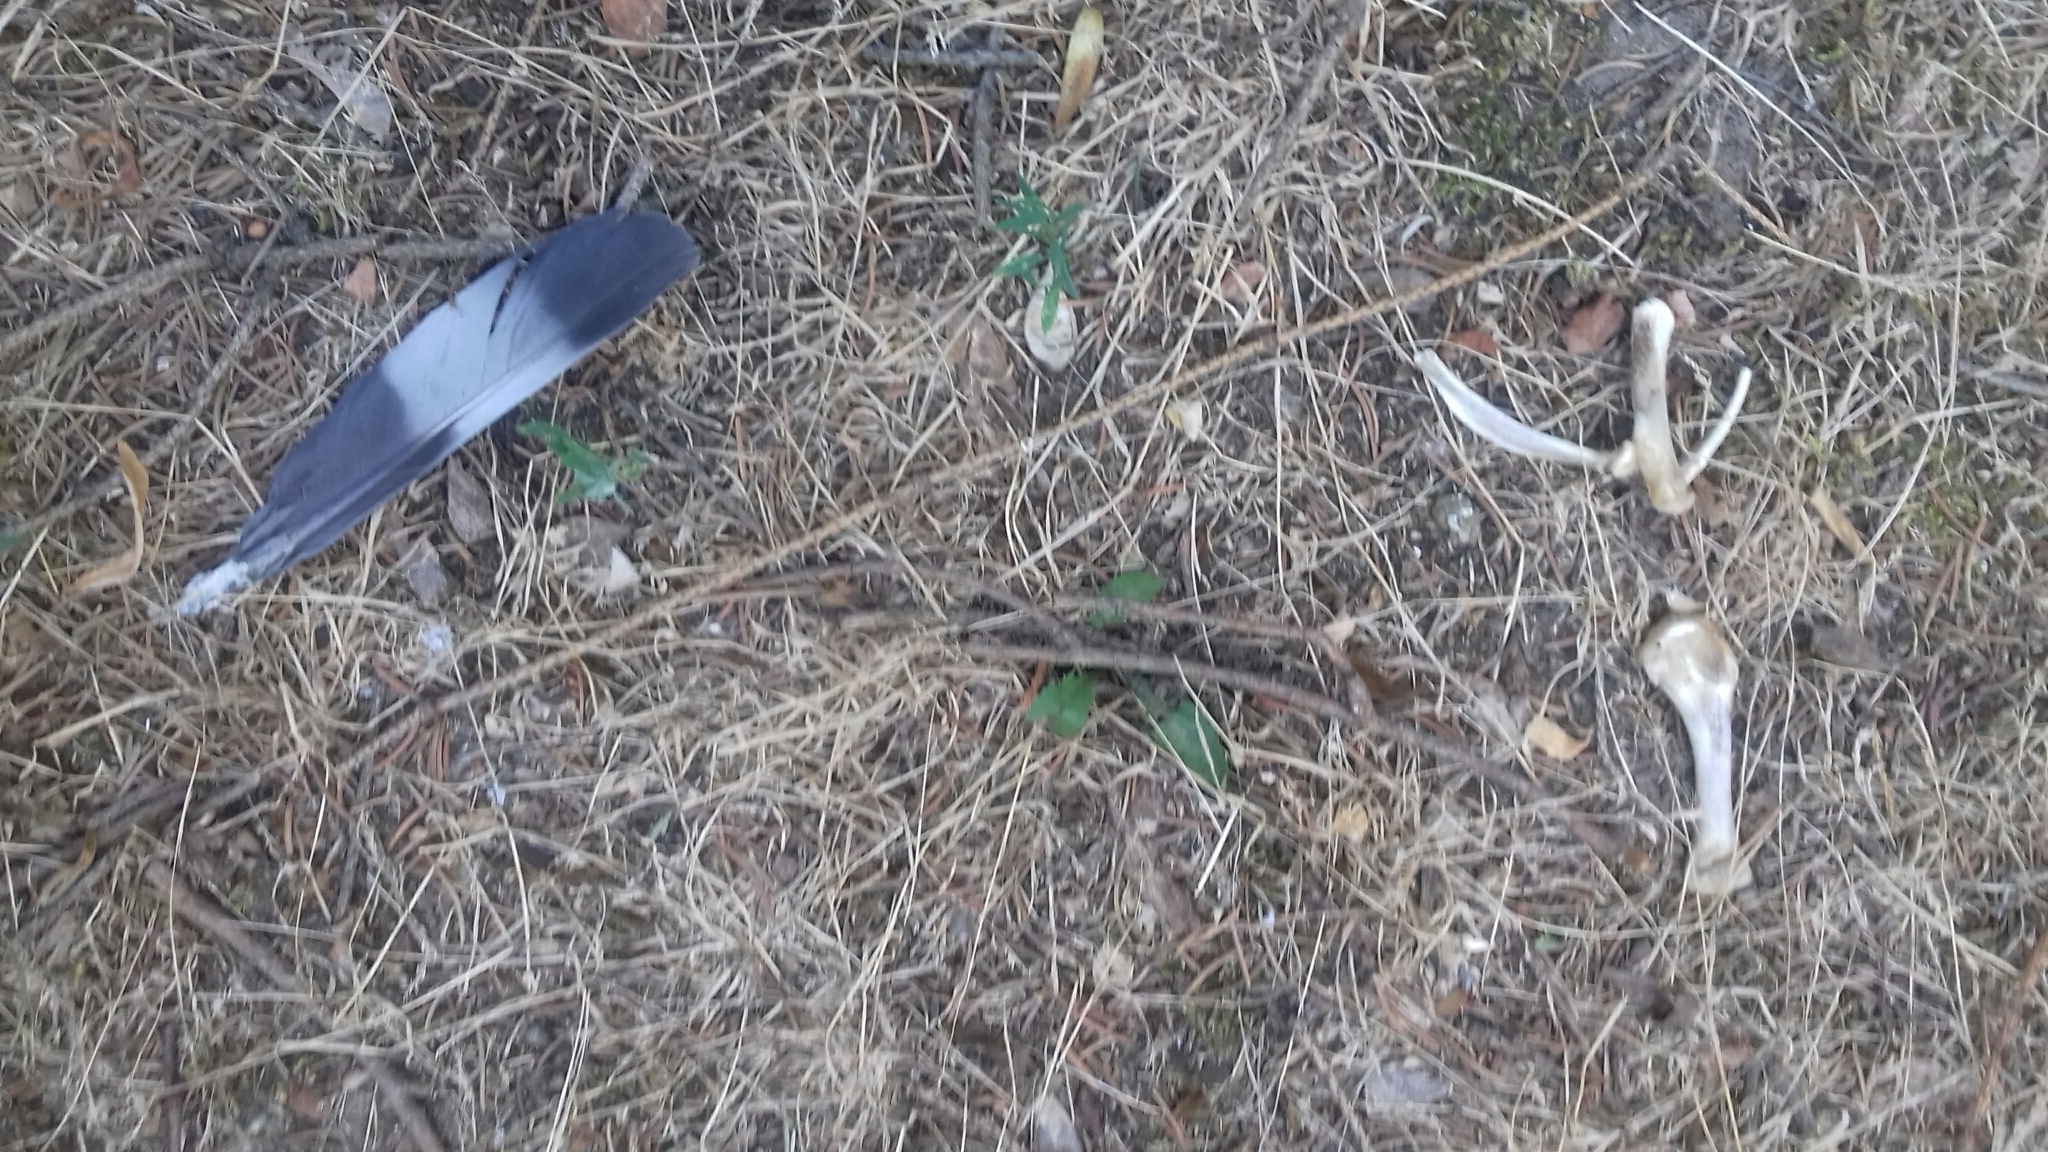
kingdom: Animalia
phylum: Chordata
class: Aves
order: Columbiformes
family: Columbidae
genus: Columba
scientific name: Columba palumbus
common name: Common wood pigeon
